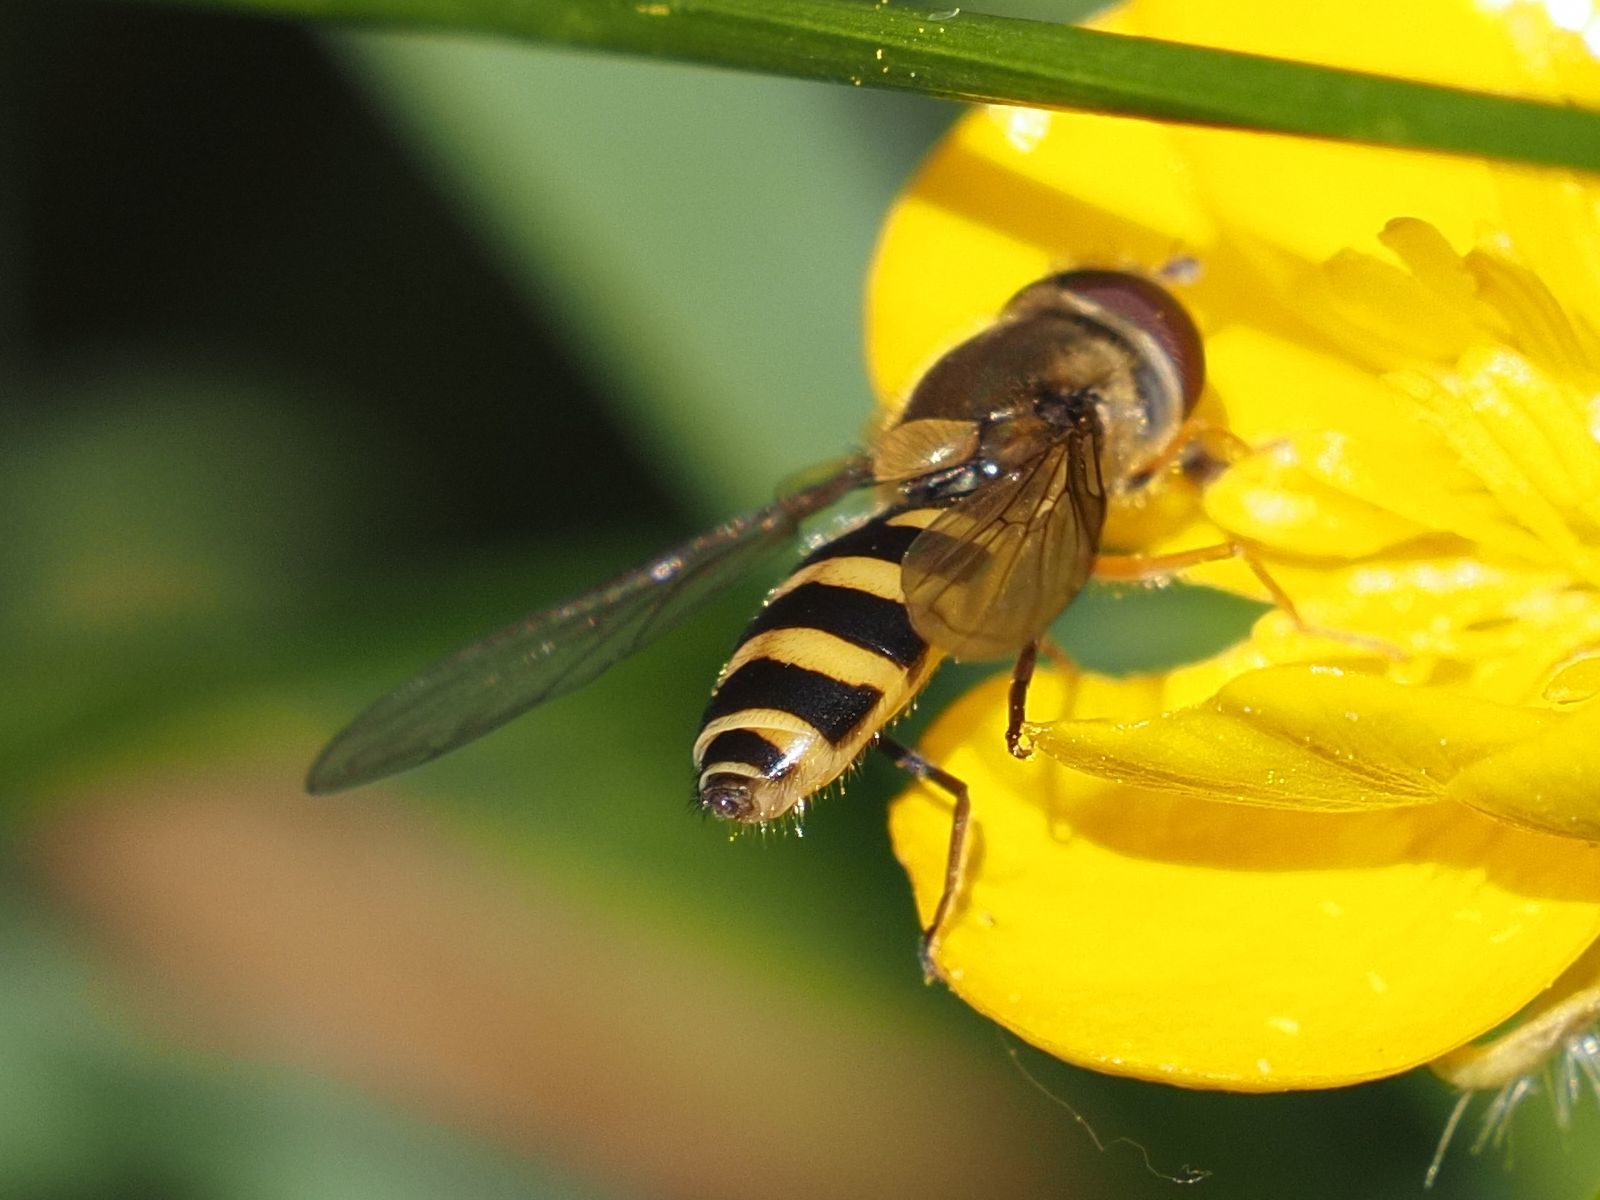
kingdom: Animalia
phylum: Arthropoda
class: Insecta
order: Diptera
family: Syrphidae
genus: Syrphus
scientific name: Syrphus
